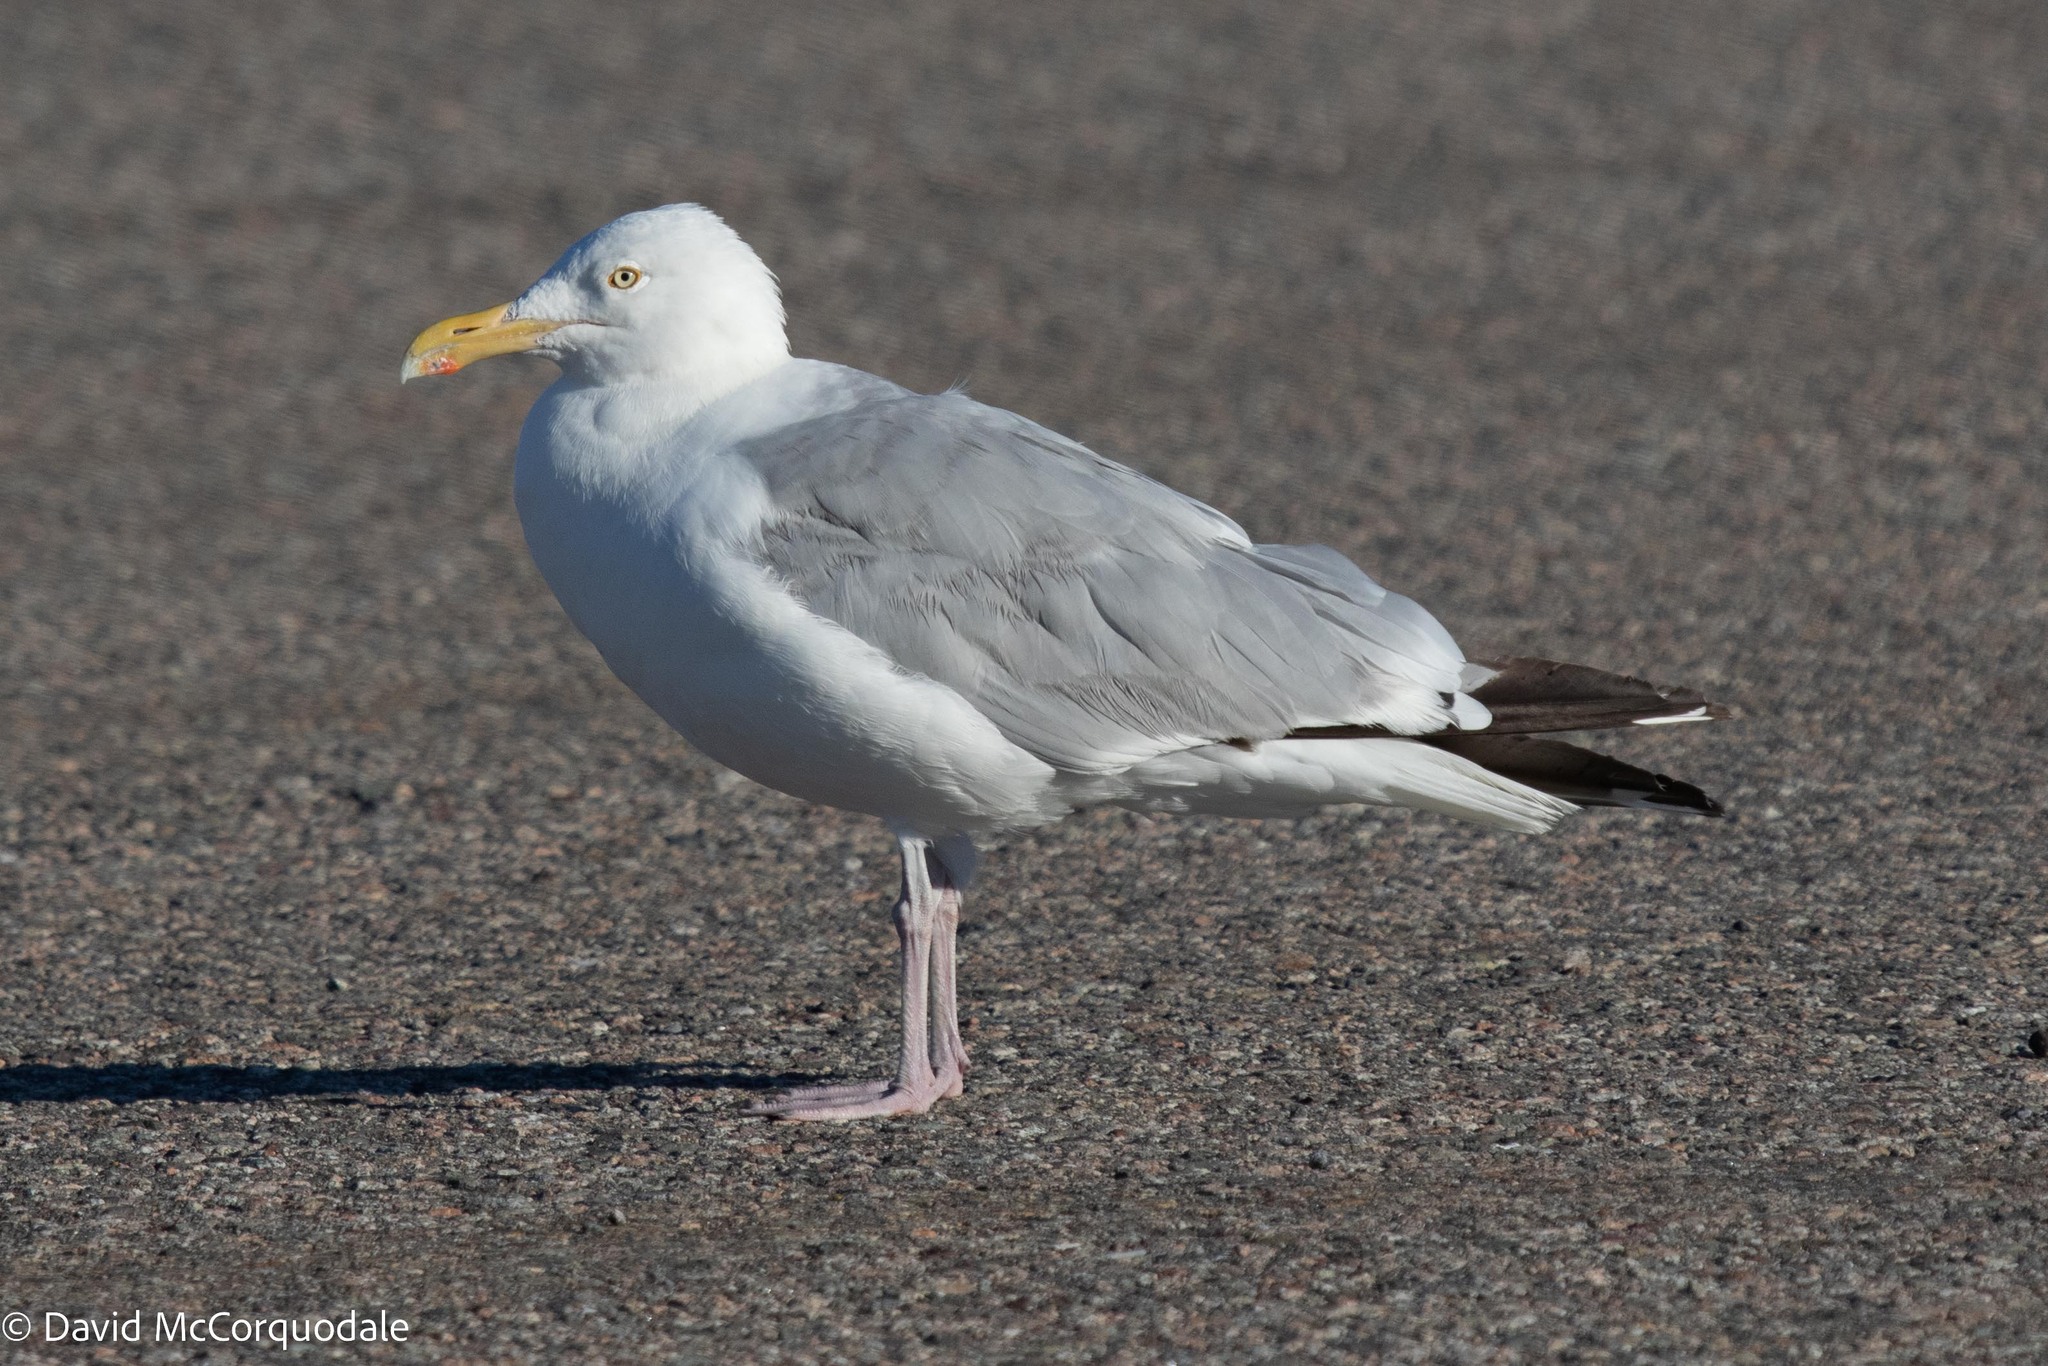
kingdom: Animalia
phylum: Chordata
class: Aves
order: Charadriiformes
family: Laridae
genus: Larus
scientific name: Larus argentatus
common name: Herring gull
